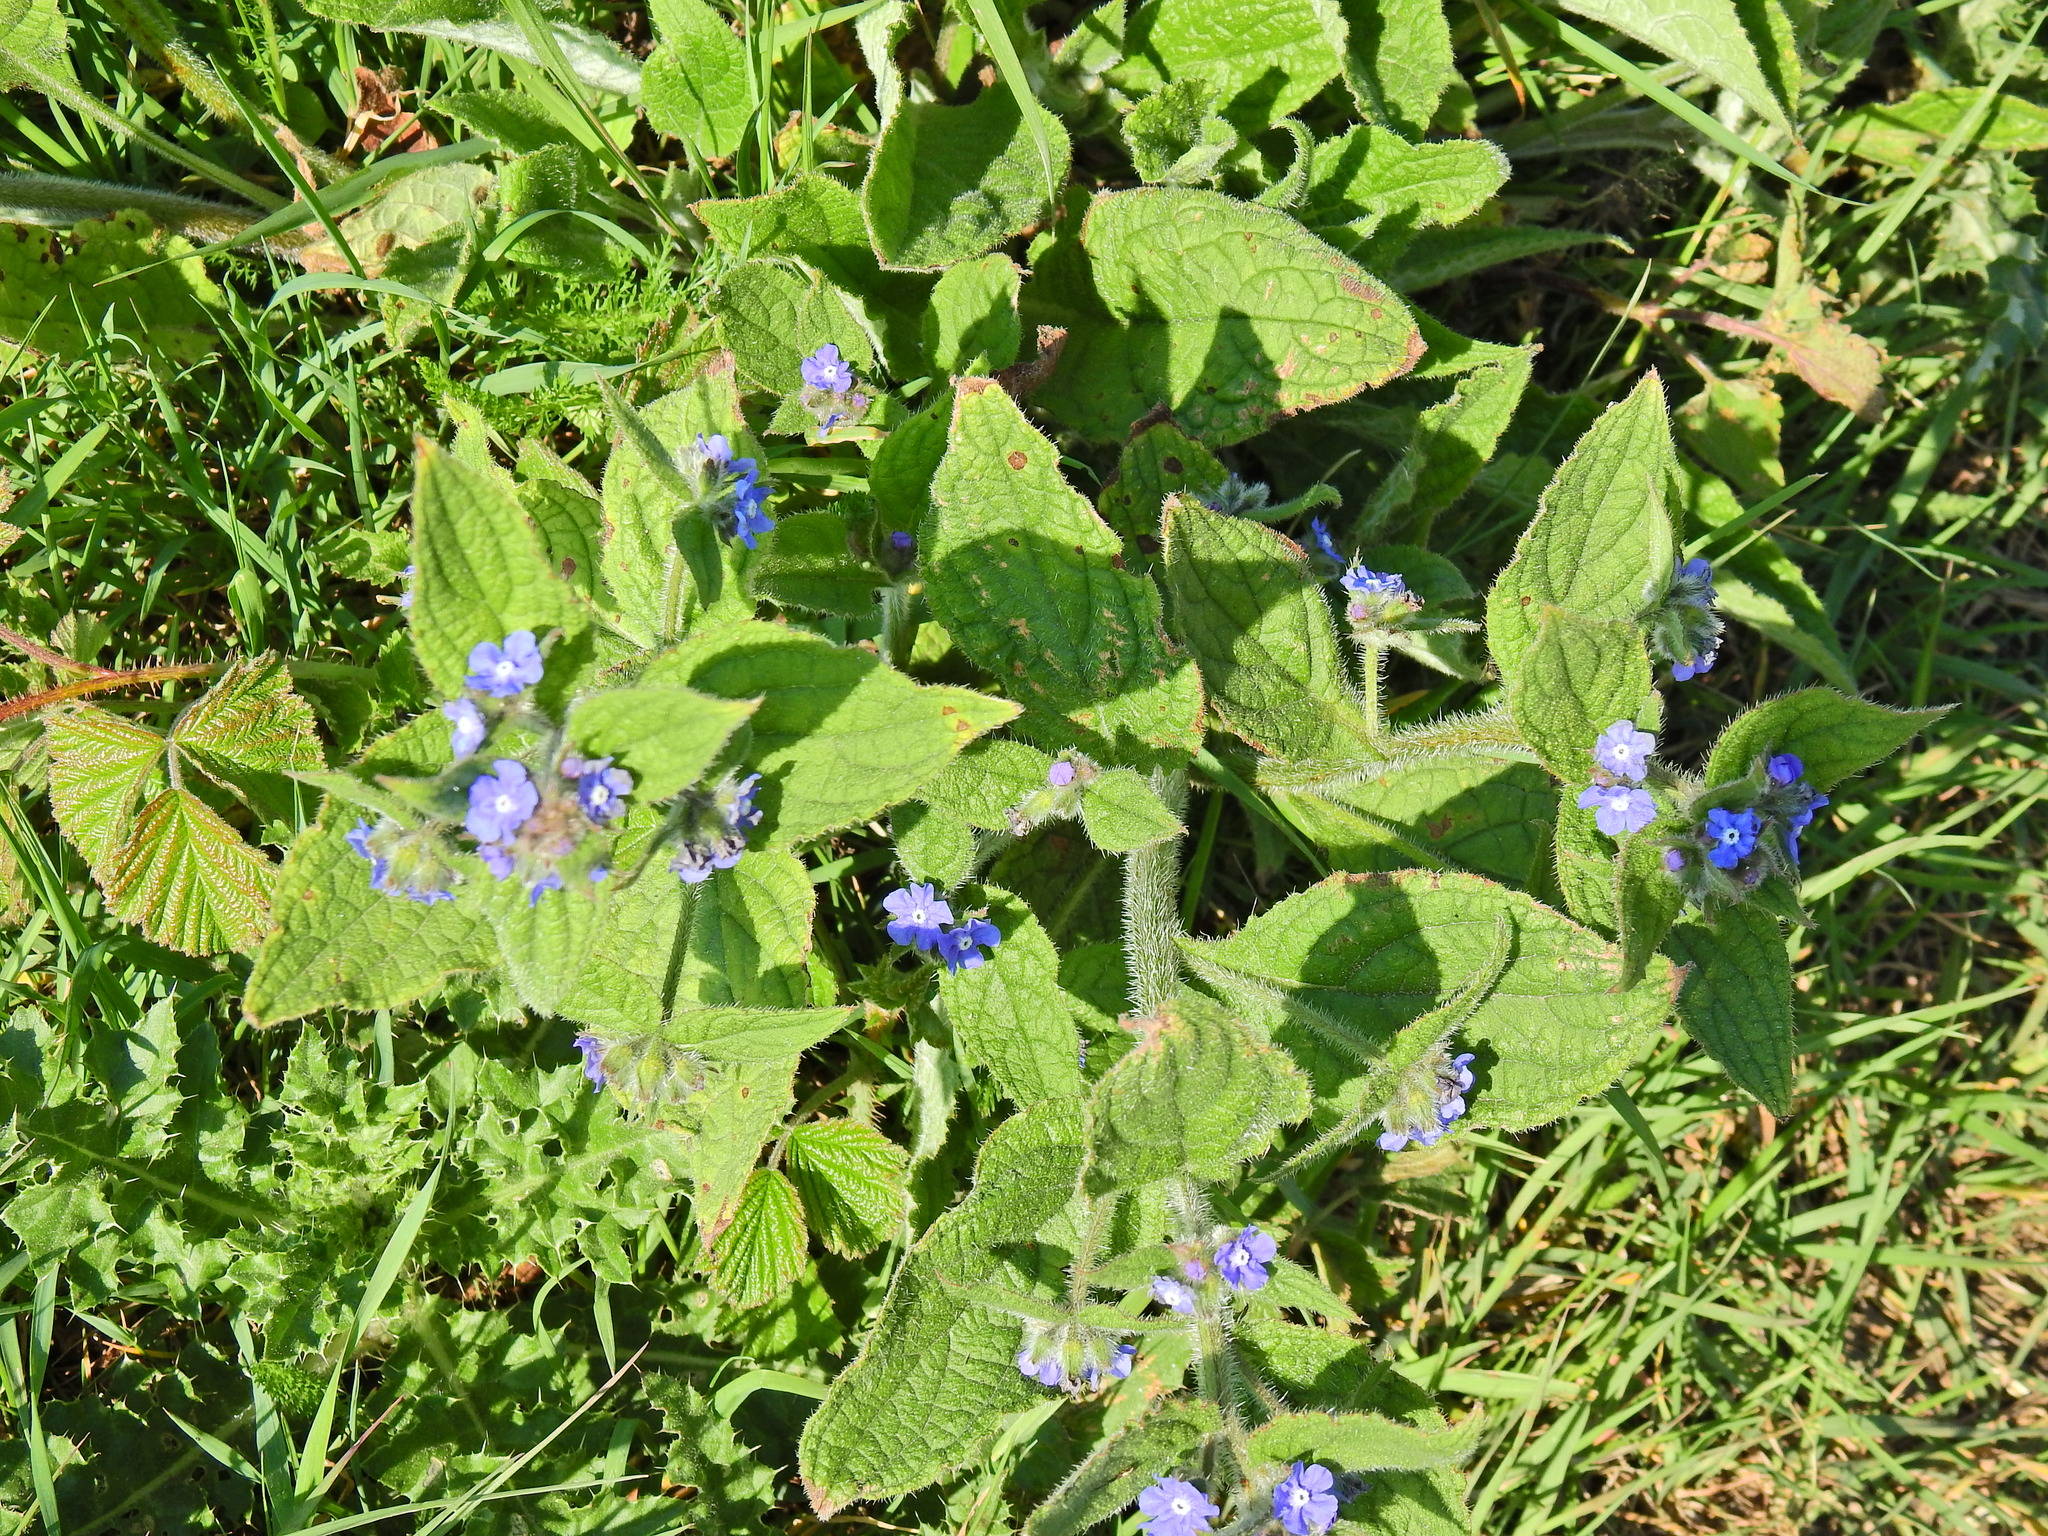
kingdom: Plantae
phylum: Tracheophyta
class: Magnoliopsida
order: Boraginales
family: Boraginaceae
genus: Pentaglottis
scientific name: Pentaglottis sempervirens
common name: Green alkanet
